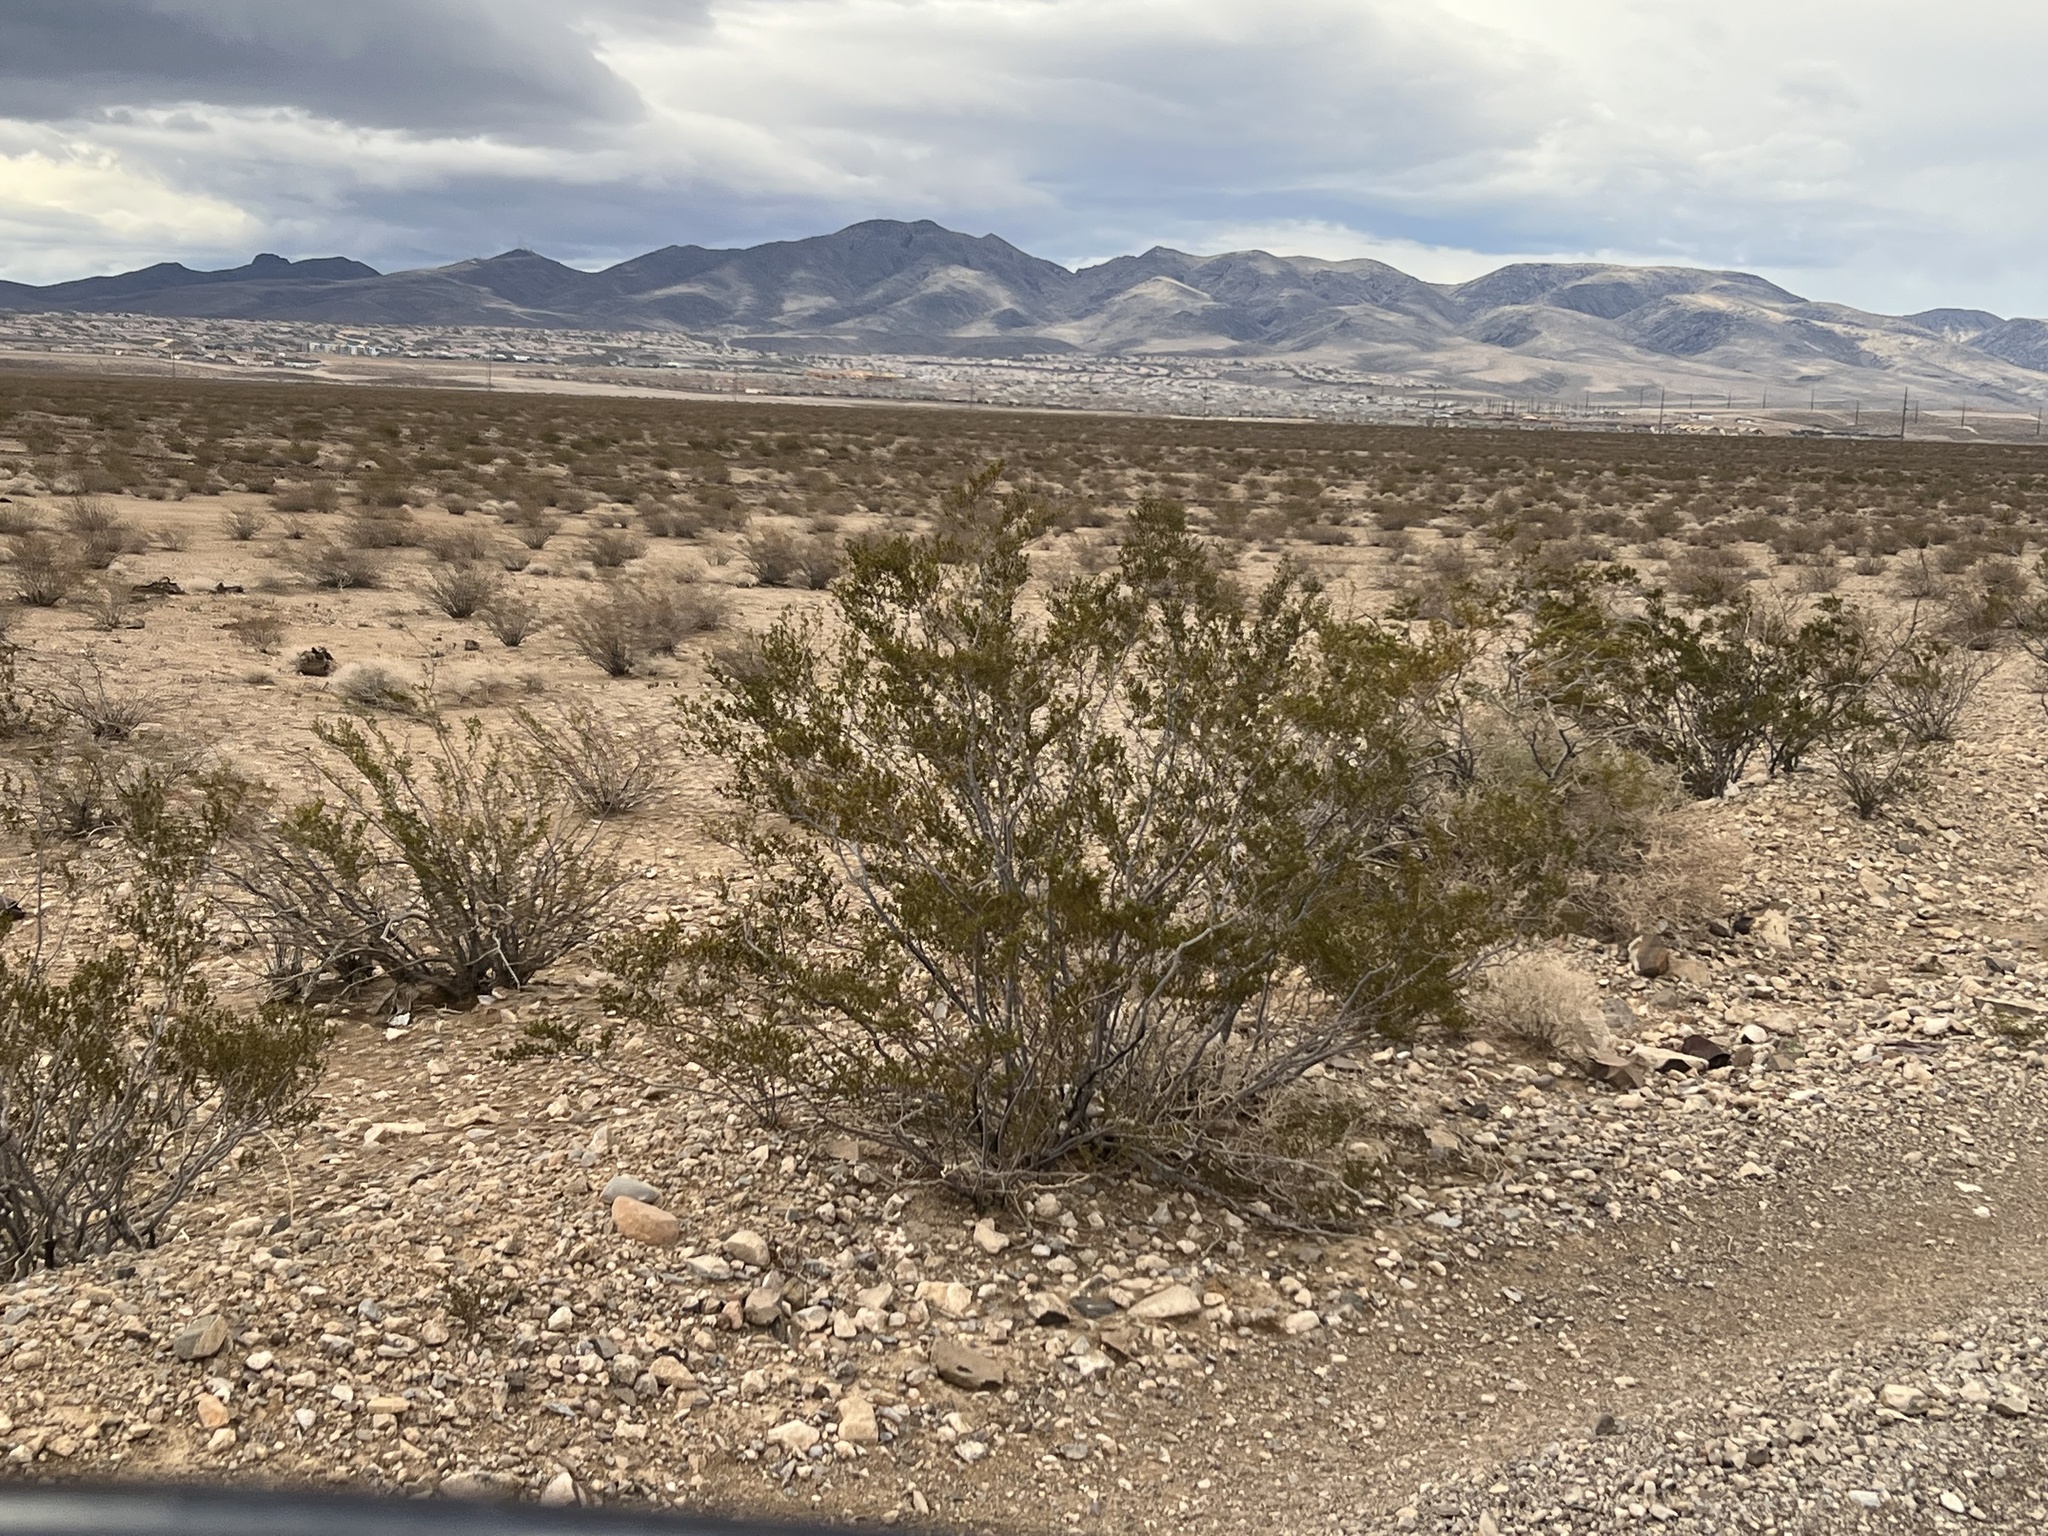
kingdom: Plantae
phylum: Tracheophyta
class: Magnoliopsida
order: Zygophyllales
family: Zygophyllaceae
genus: Larrea
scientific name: Larrea tridentata
